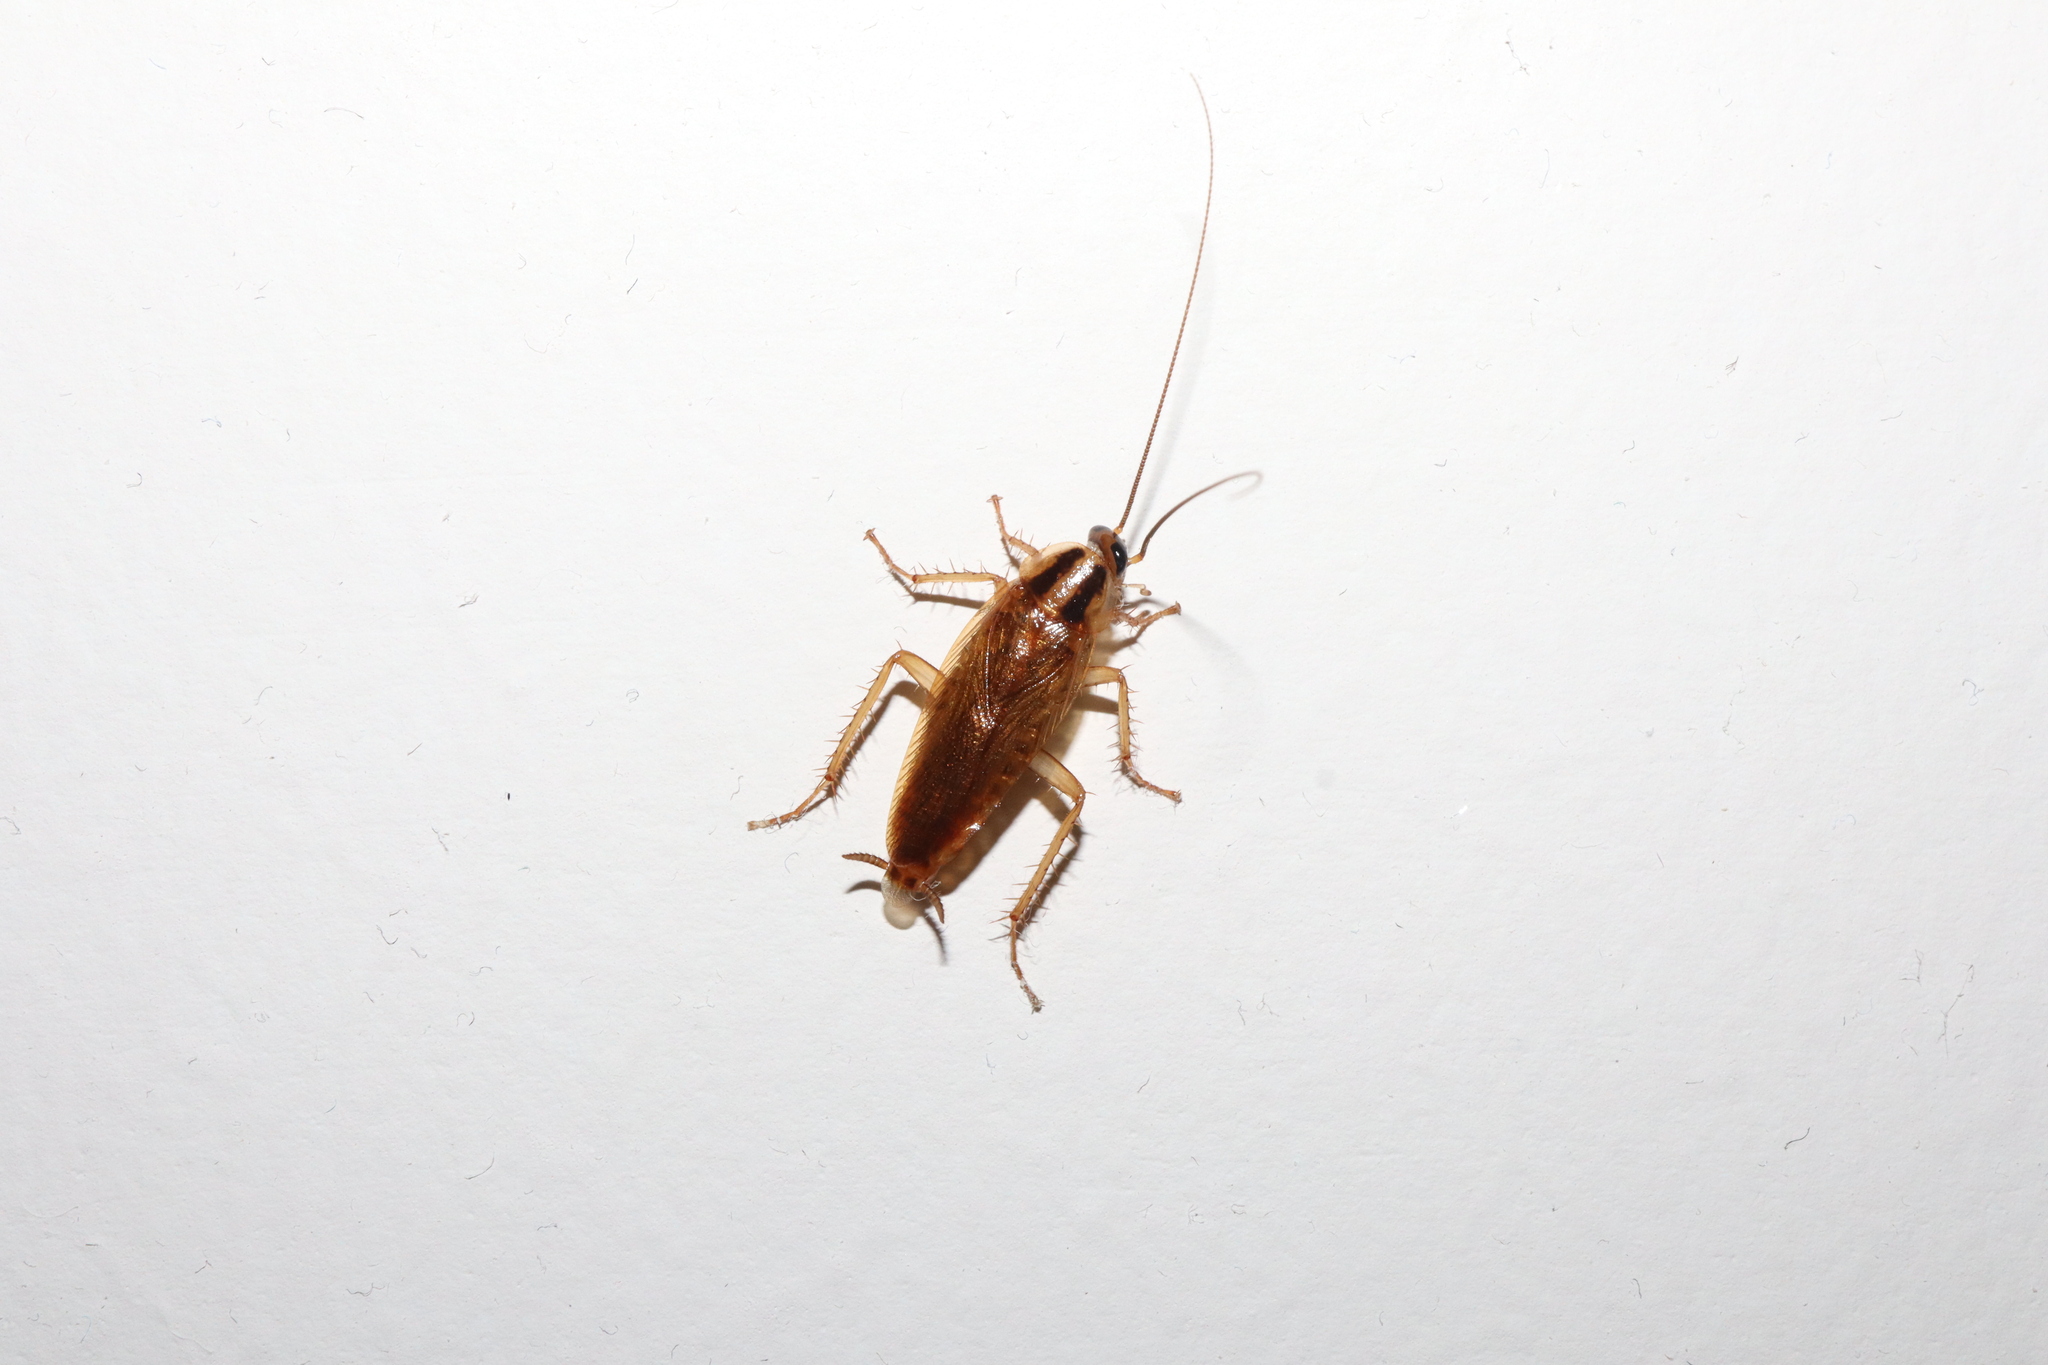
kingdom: Animalia
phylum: Arthropoda
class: Insecta
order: Blattodea
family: Ectobiidae
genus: Blattella
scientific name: Blattella germanica
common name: German cockroach
